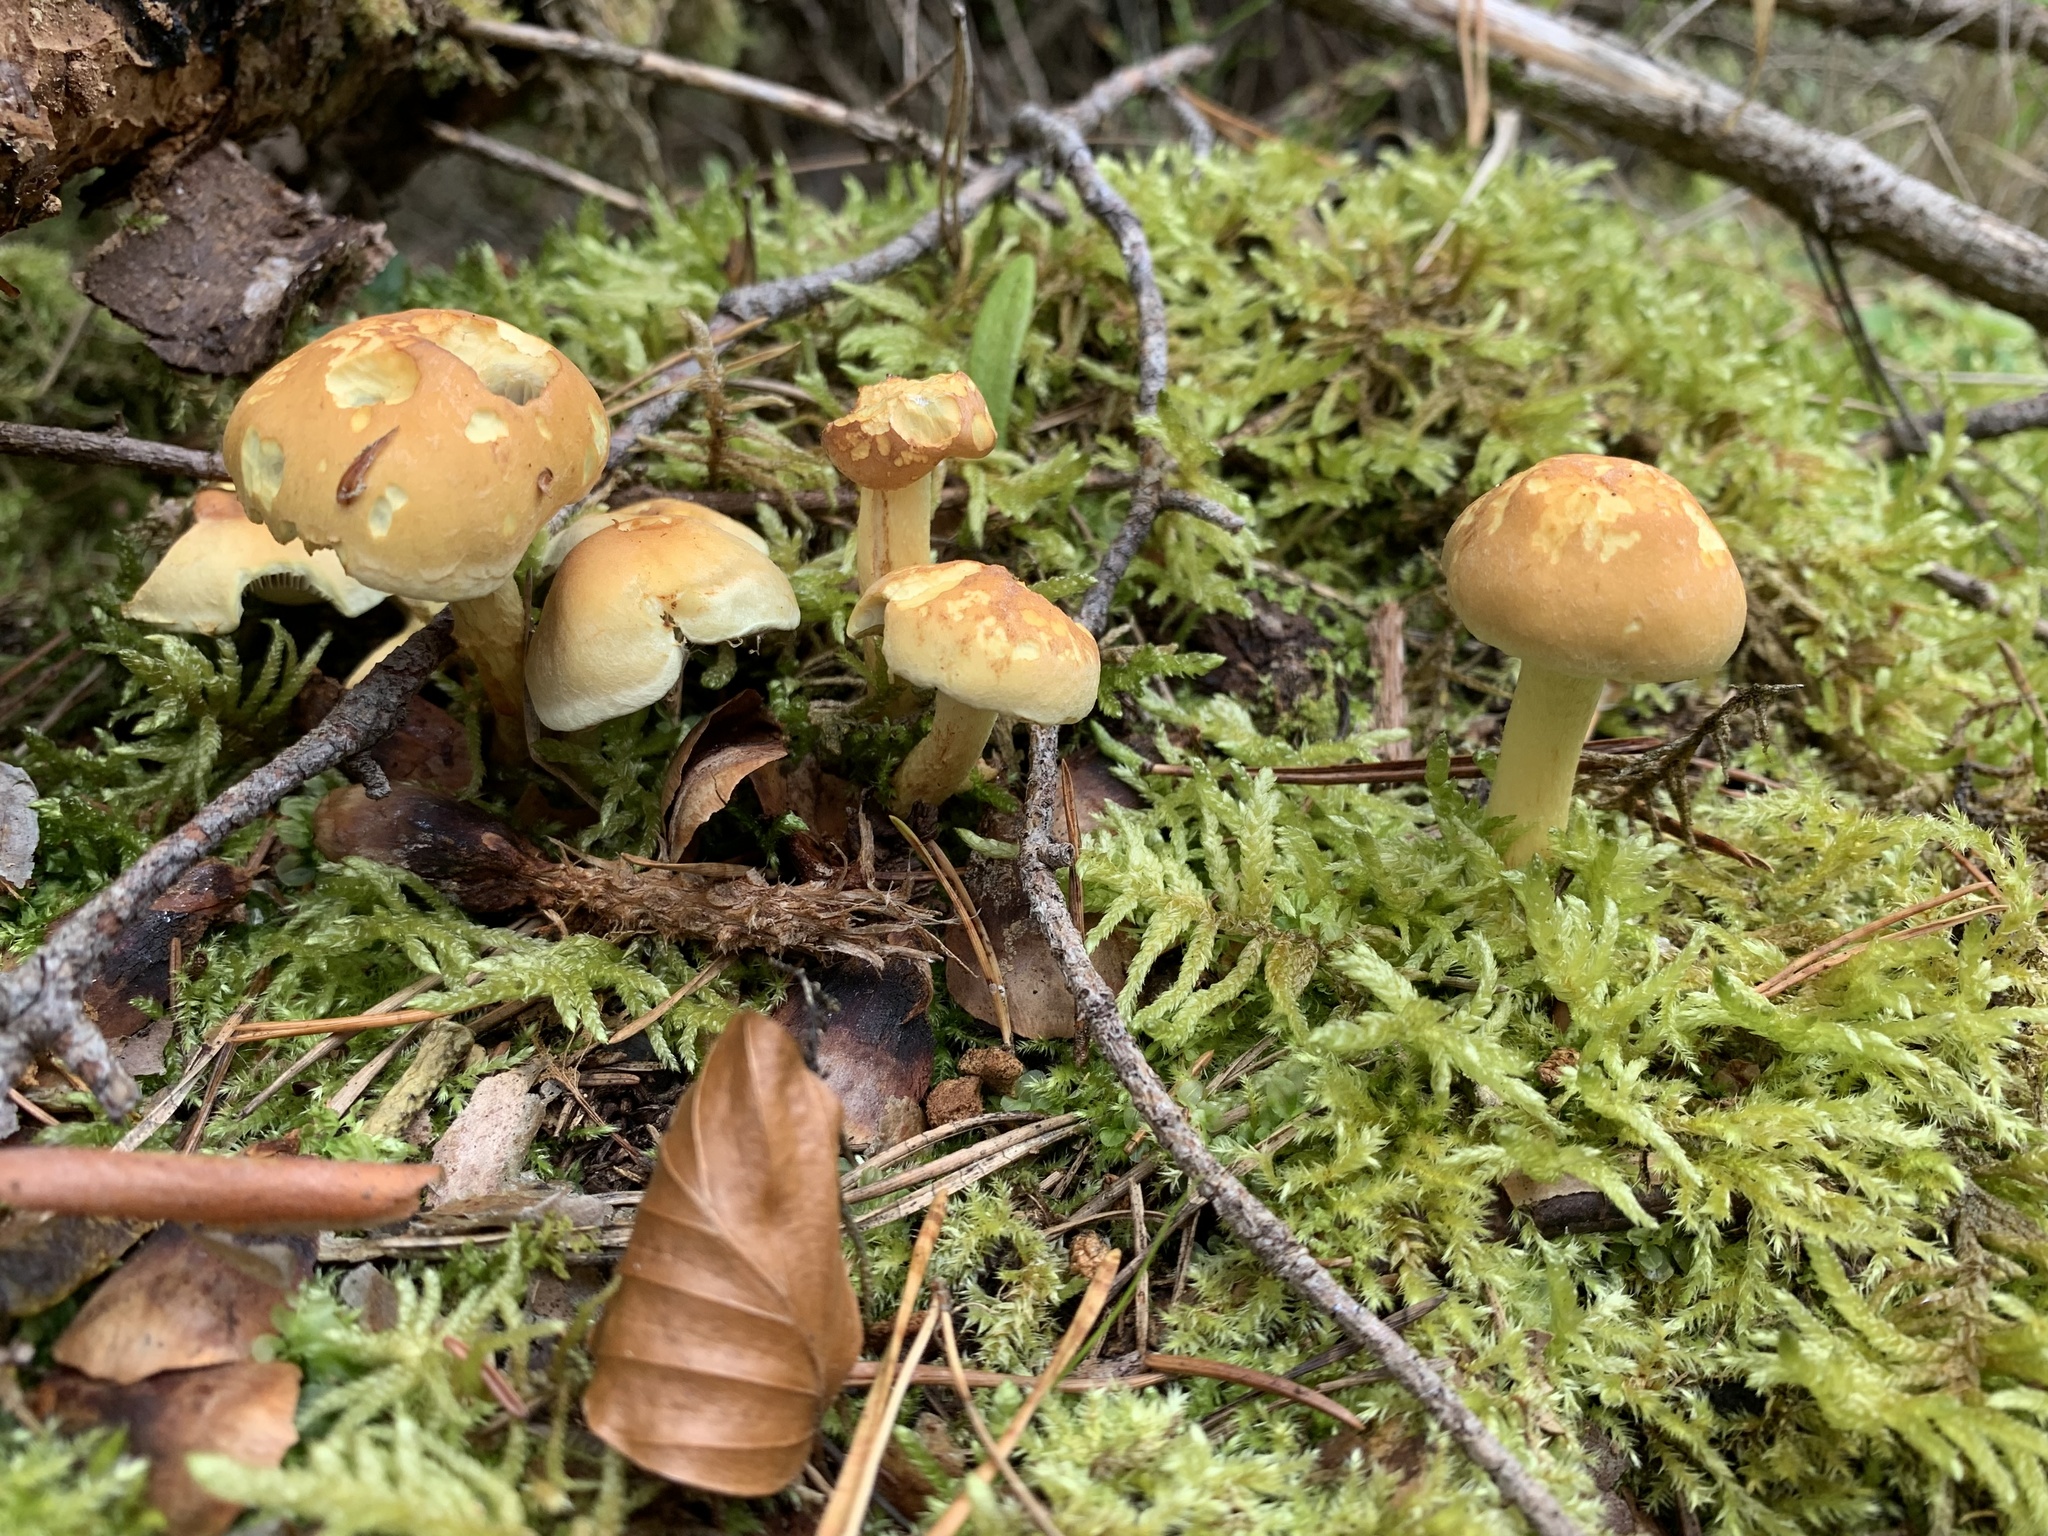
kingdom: Fungi
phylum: Basidiomycota
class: Agaricomycetes
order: Agaricales
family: Strophariaceae
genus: Hypholoma
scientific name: Hypholoma fasciculare
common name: Sulphur tuft
